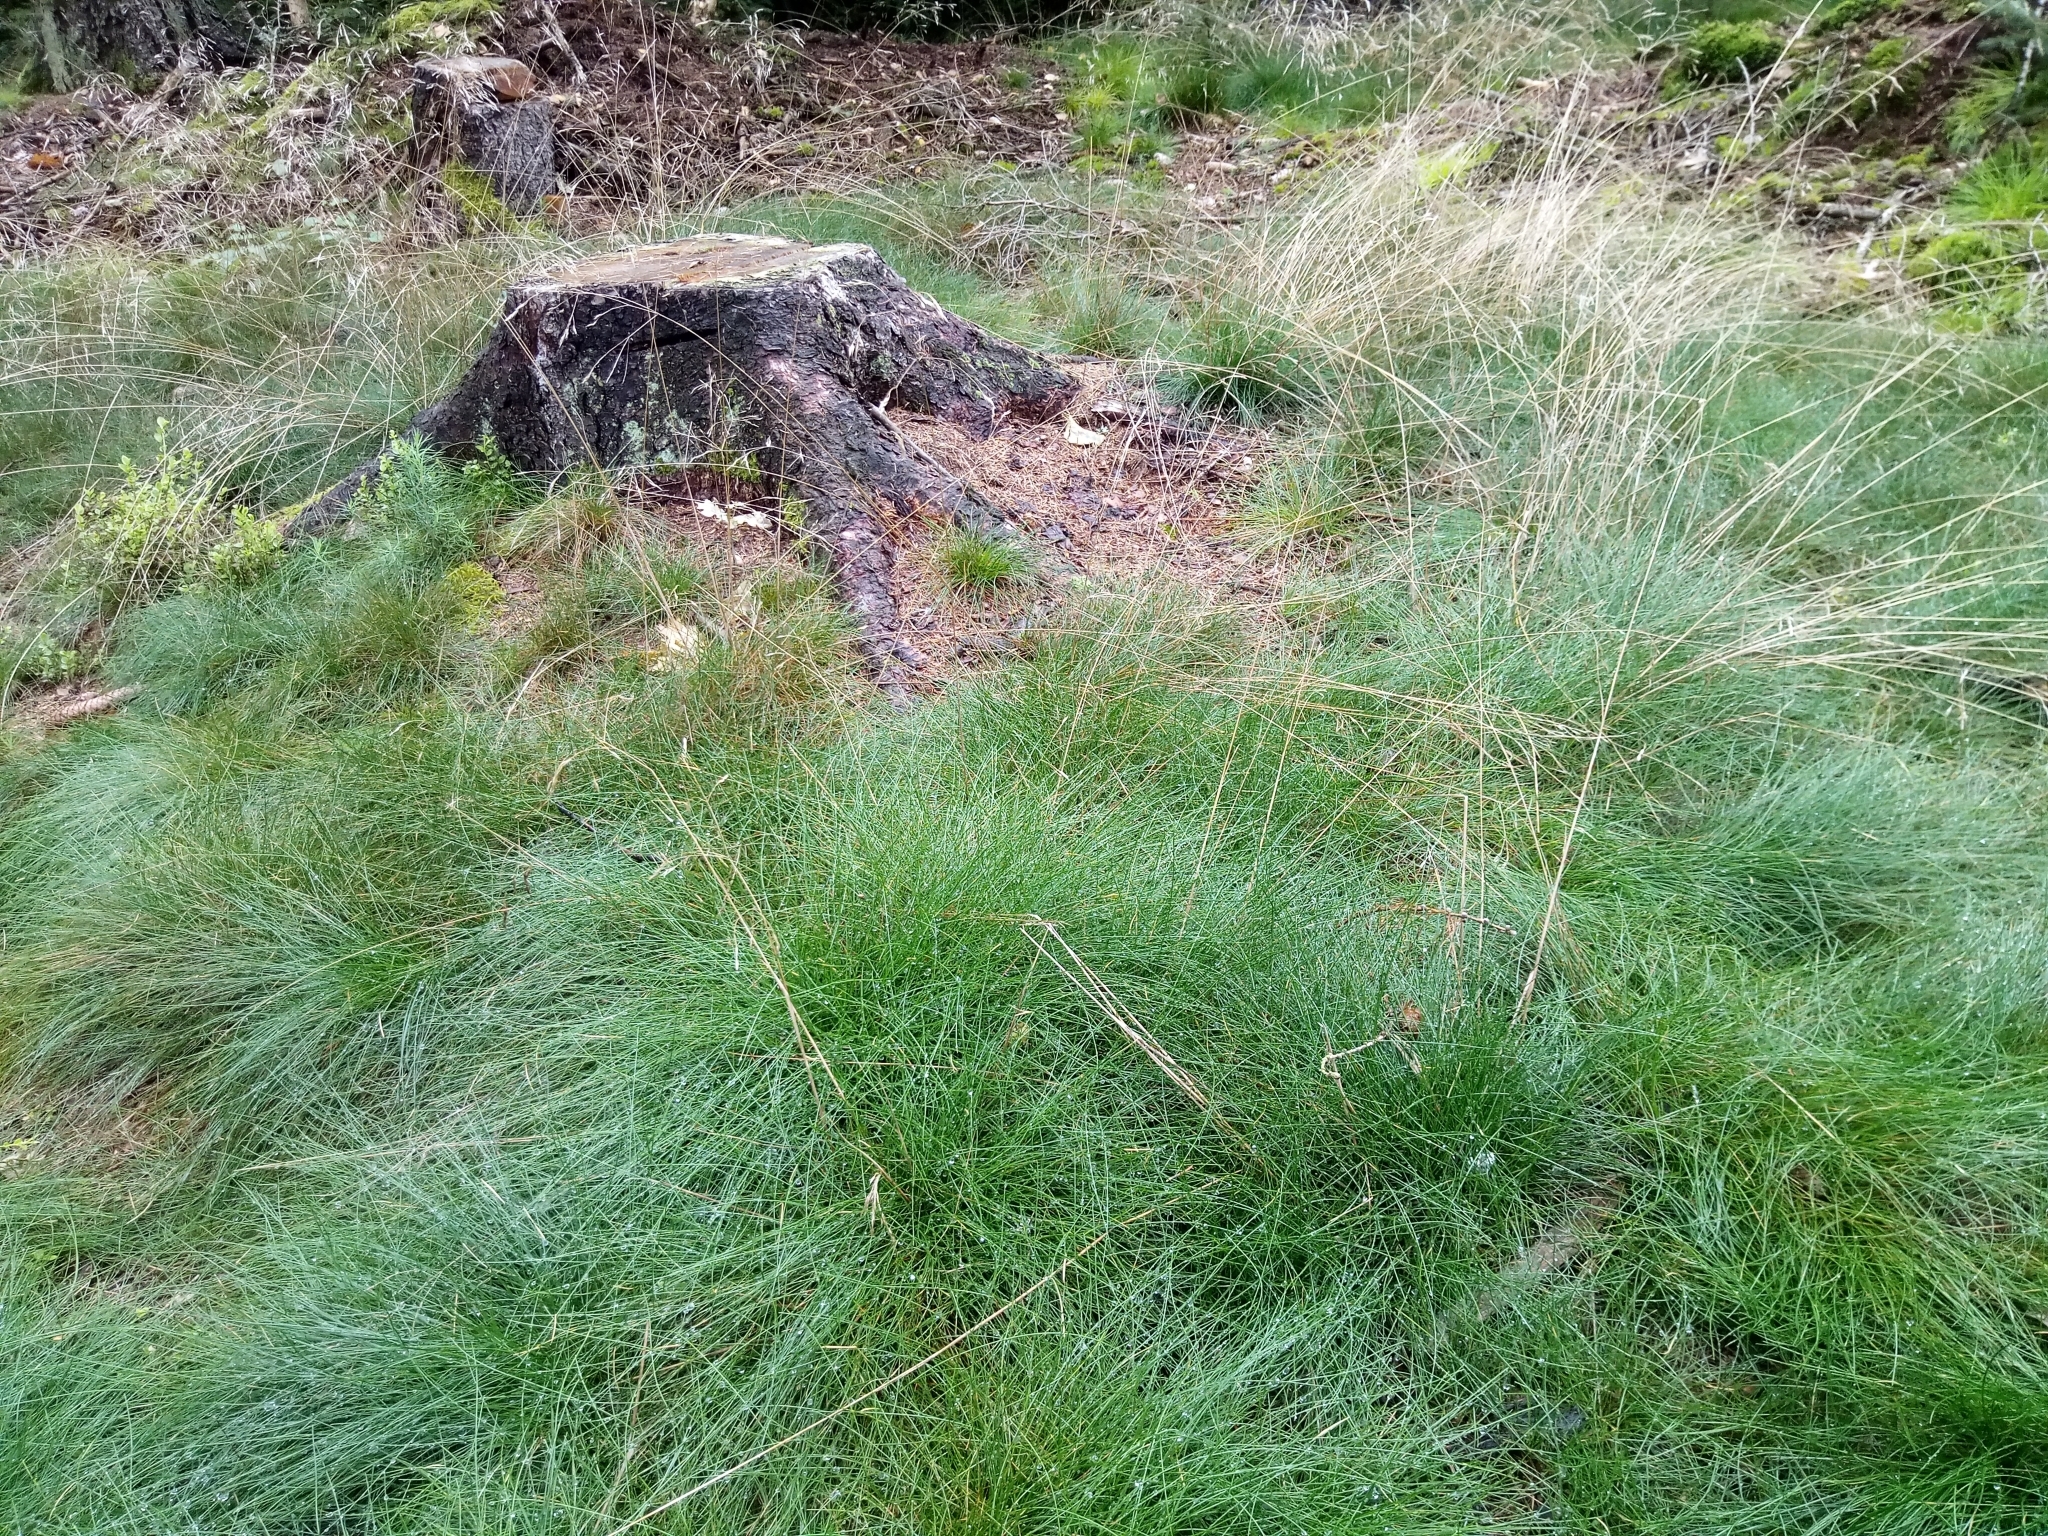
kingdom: Plantae
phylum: Tracheophyta
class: Liliopsida
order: Poales
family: Poaceae
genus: Avenella
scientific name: Avenella flexuosa
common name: Wavy hairgrass
